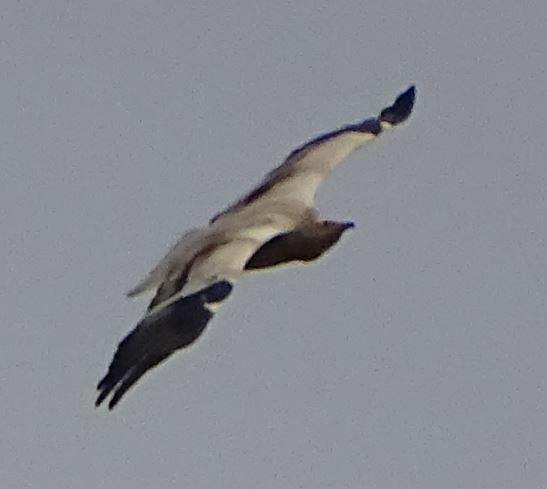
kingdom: Animalia
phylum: Chordata
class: Aves
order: Accipitriformes
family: Accipitridae
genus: Neophron
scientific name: Neophron percnopterus
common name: Egyptian vulture
